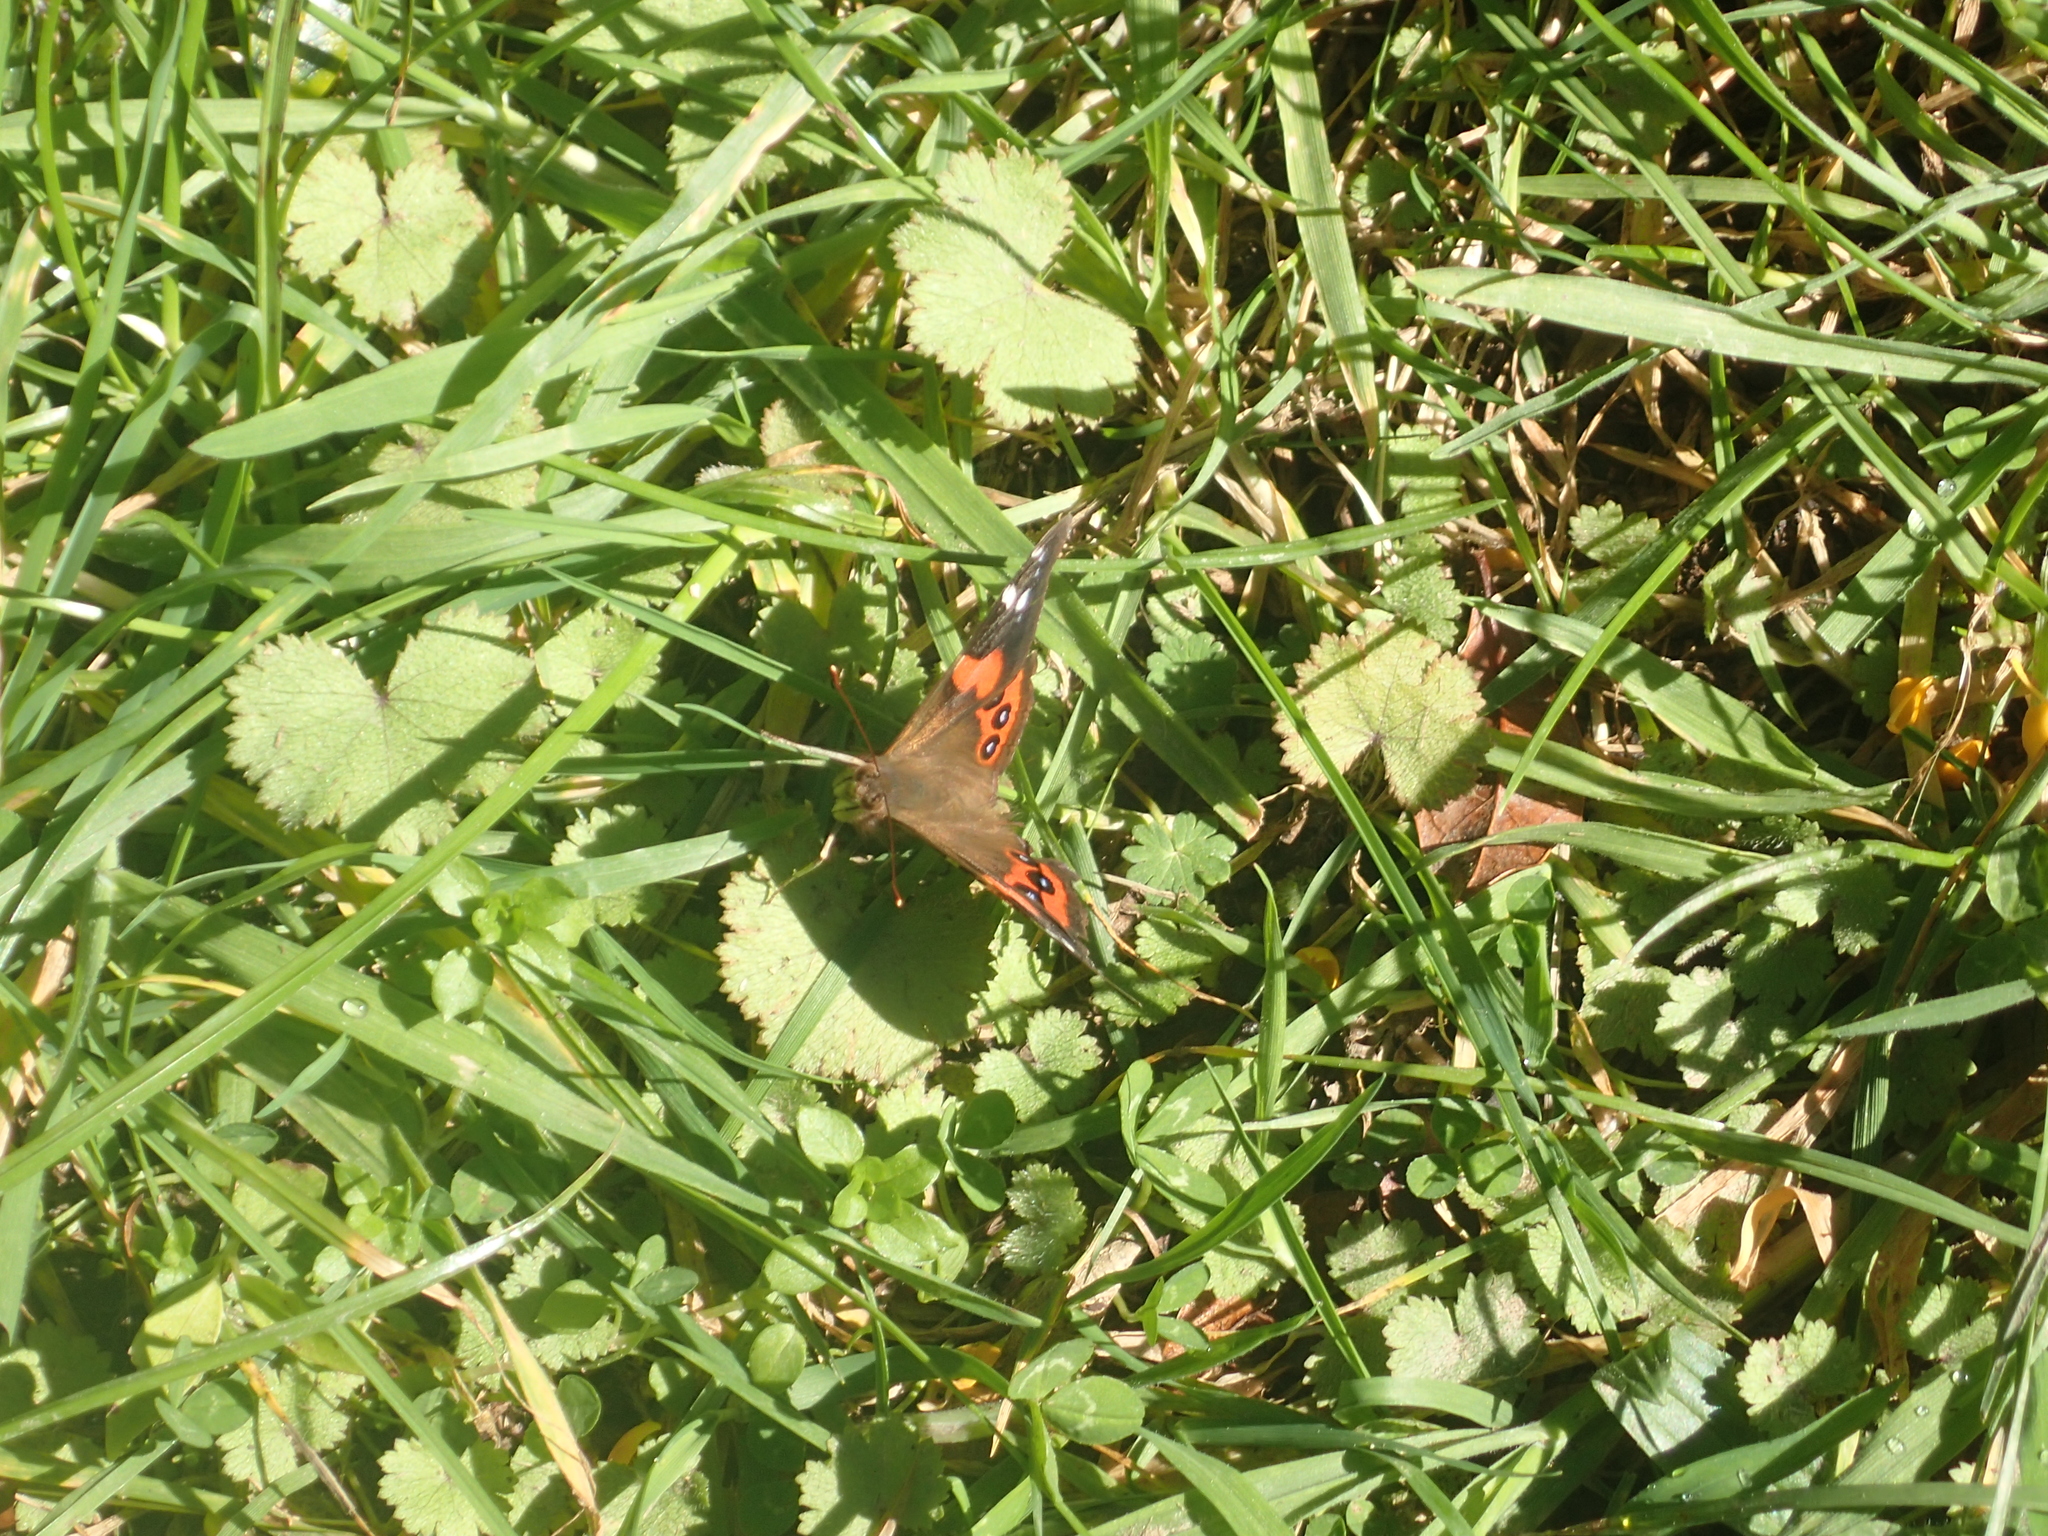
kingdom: Animalia
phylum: Arthropoda
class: Insecta
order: Lepidoptera
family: Nymphalidae
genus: Vanessa
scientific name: Vanessa gonerilla
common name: New zealand red admiral
